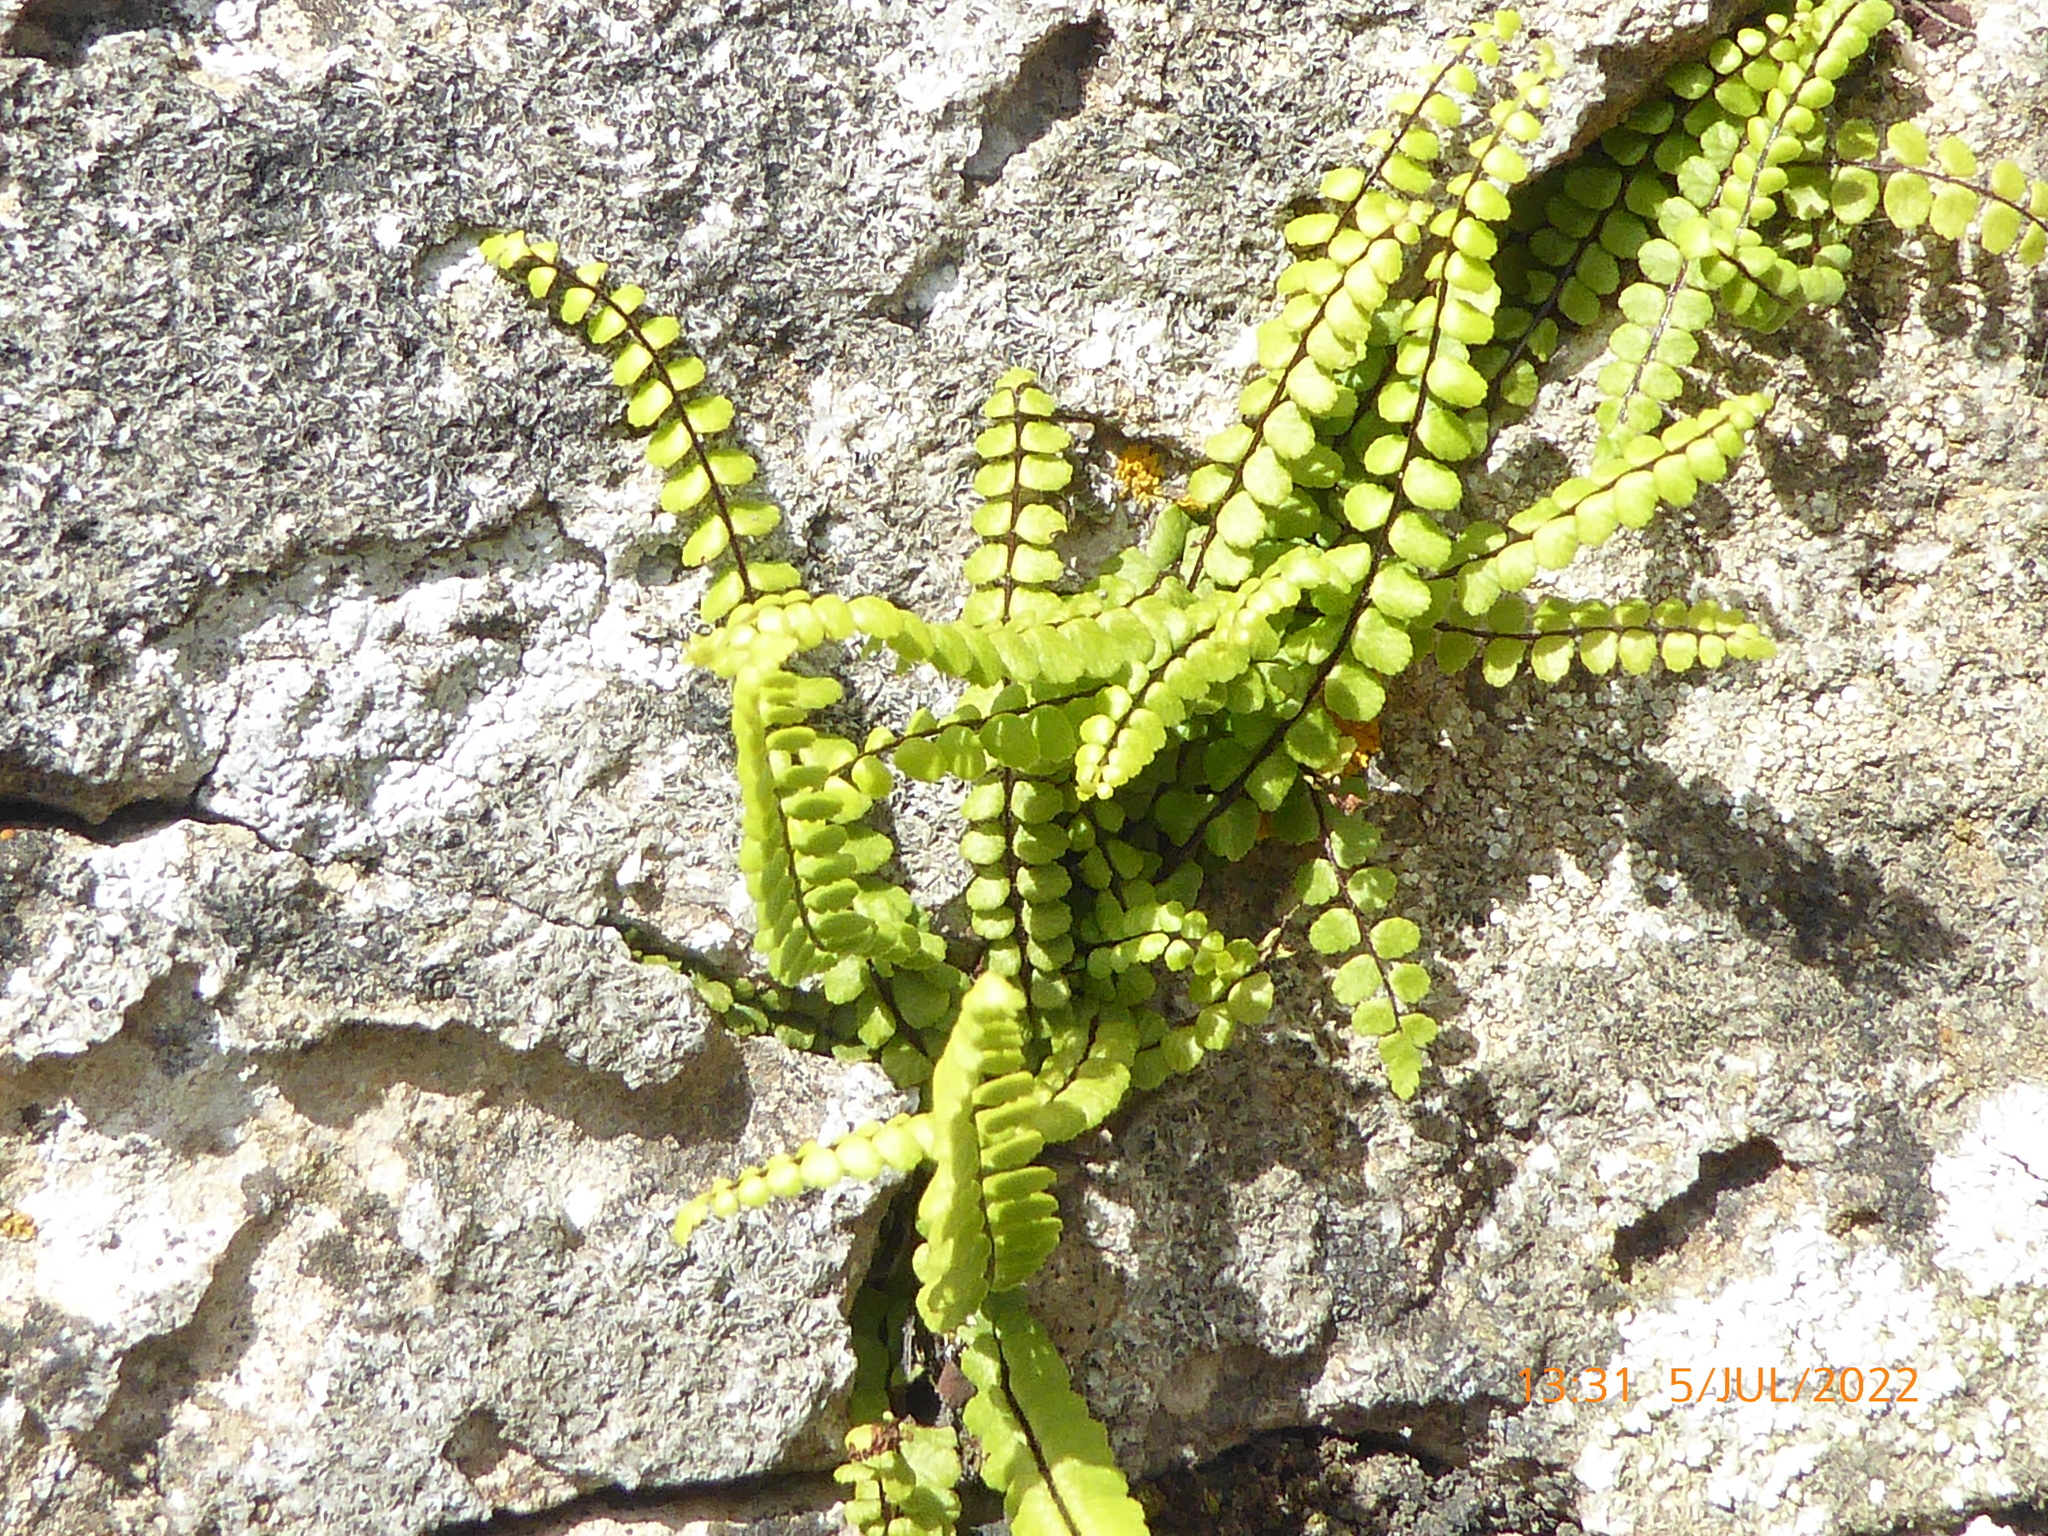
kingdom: Plantae
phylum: Tracheophyta
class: Polypodiopsida
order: Polypodiales
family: Aspleniaceae
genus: Asplenium
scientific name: Asplenium trichomanes
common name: Maidenhair spleenwort
